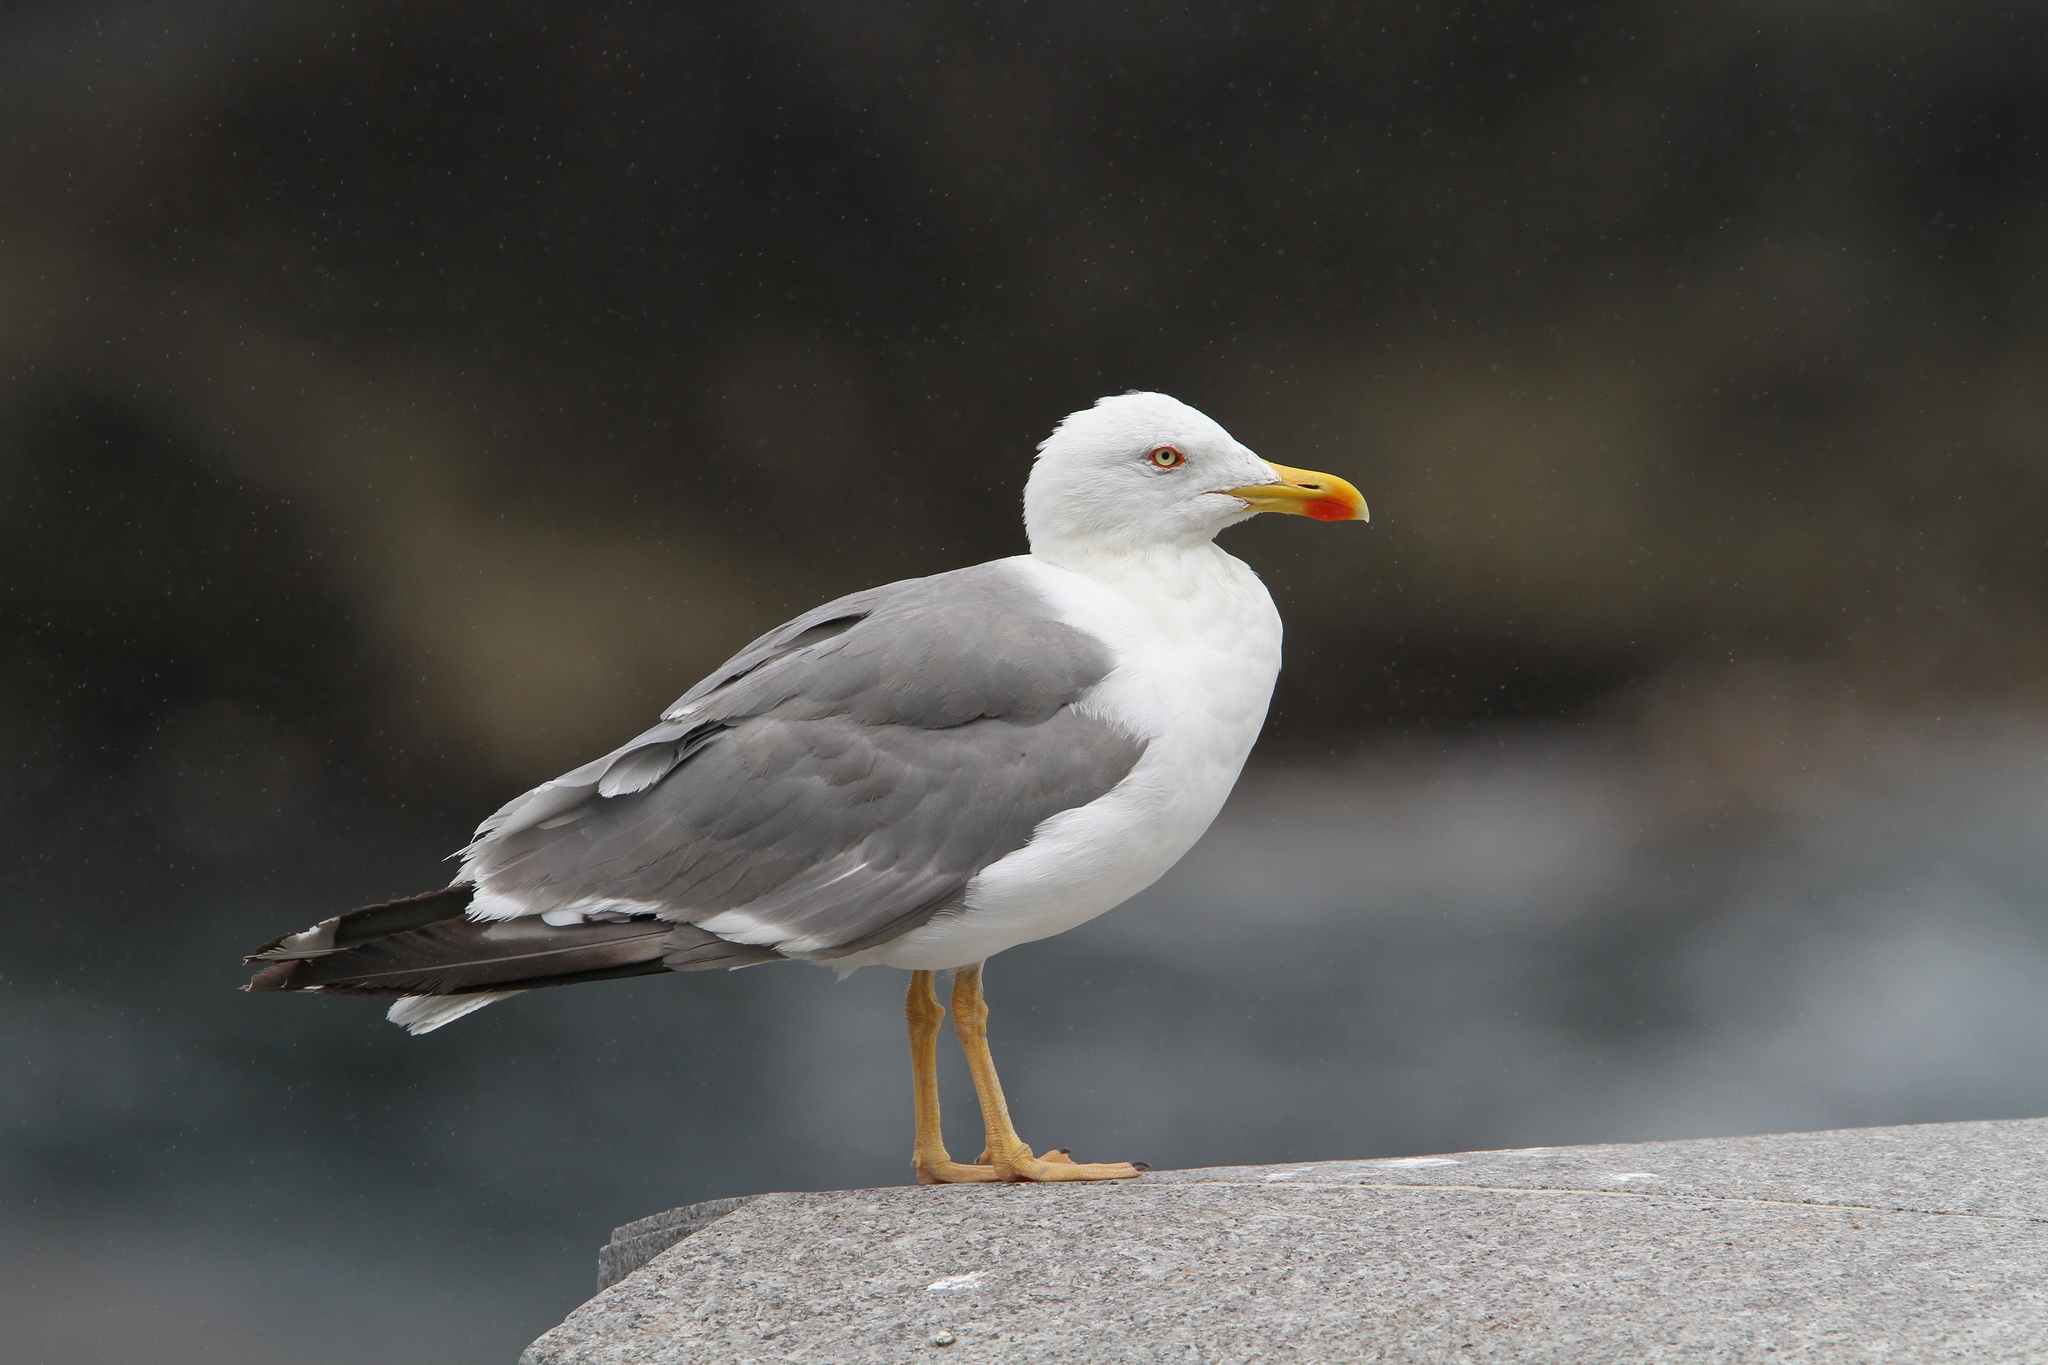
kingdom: Animalia
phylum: Chordata
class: Aves
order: Charadriiformes
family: Laridae
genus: Larus
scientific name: Larus michahellis
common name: Yellow-legged gull
